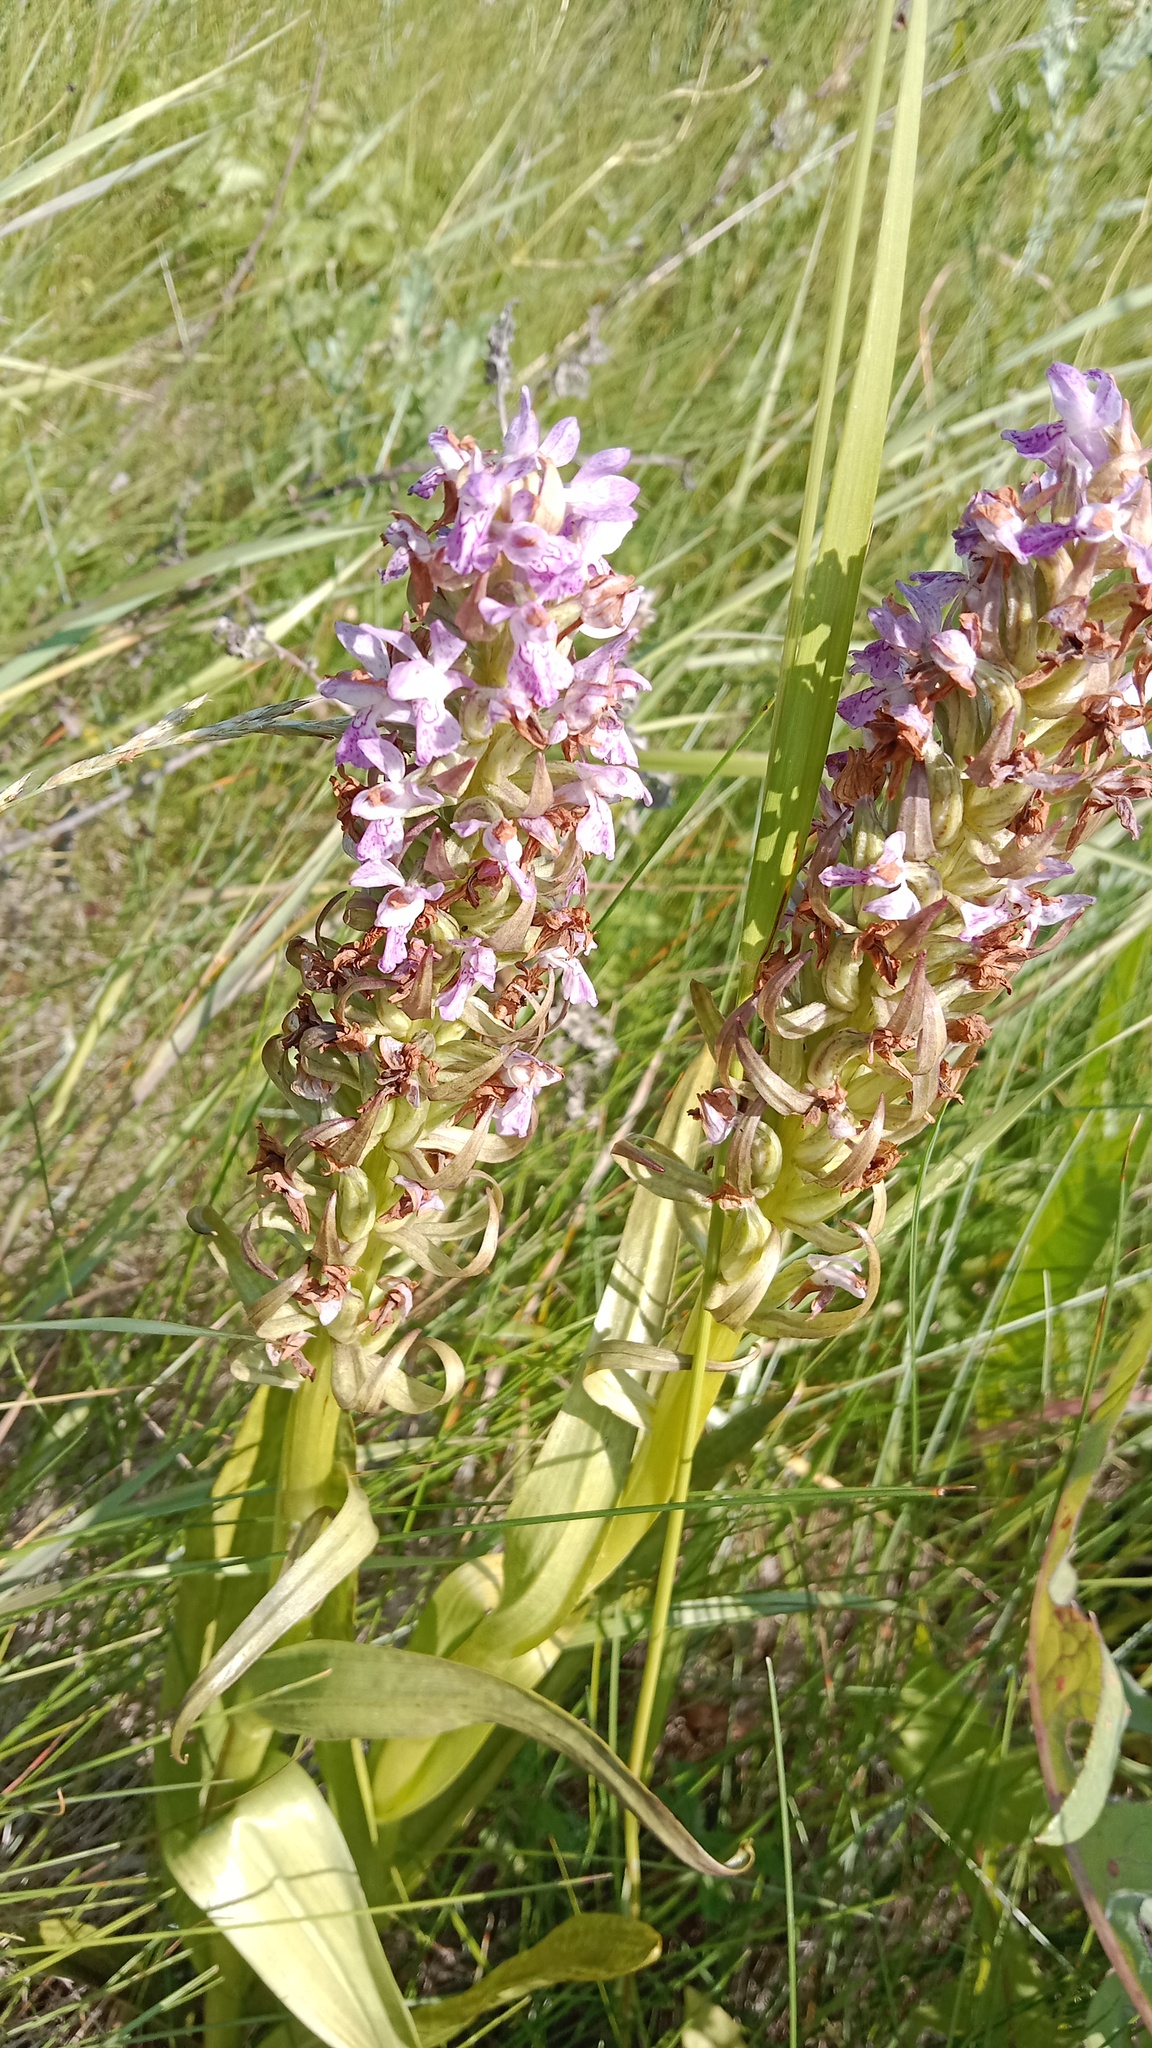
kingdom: Plantae
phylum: Tracheophyta
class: Liliopsida
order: Asparagales
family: Orchidaceae
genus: Dactylorhiza
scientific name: Dactylorhiza incarnata
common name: Early marsh-orchid
